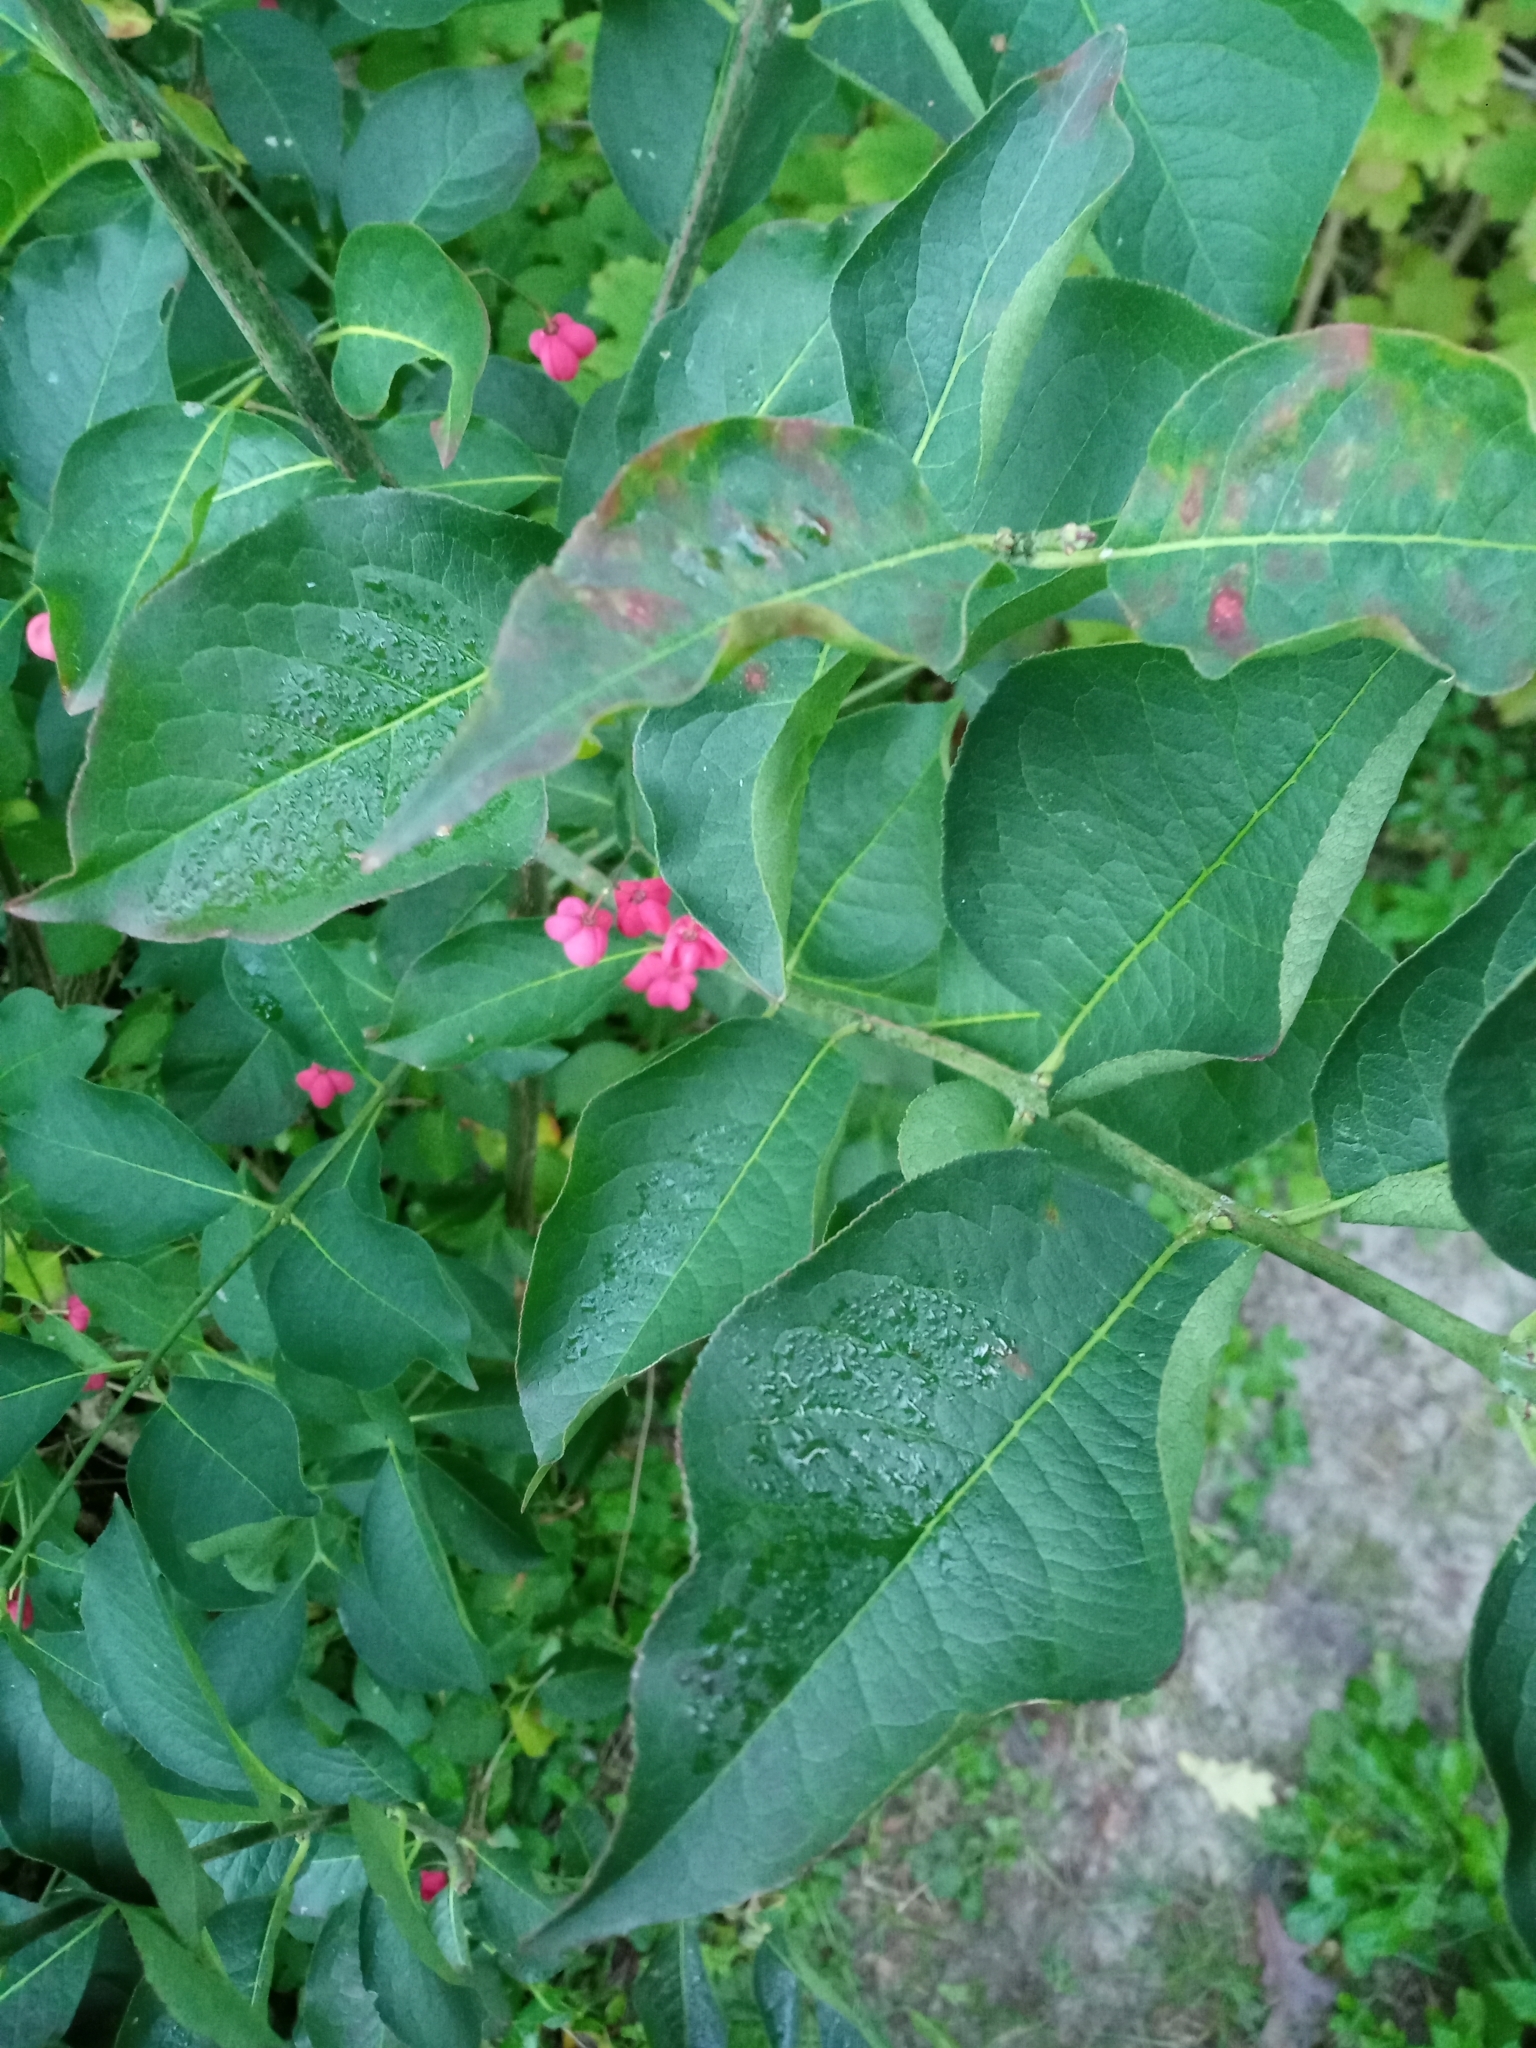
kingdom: Plantae
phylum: Tracheophyta
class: Magnoliopsida
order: Celastrales
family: Celastraceae
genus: Euonymus
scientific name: Euonymus europaeus
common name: Spindle
